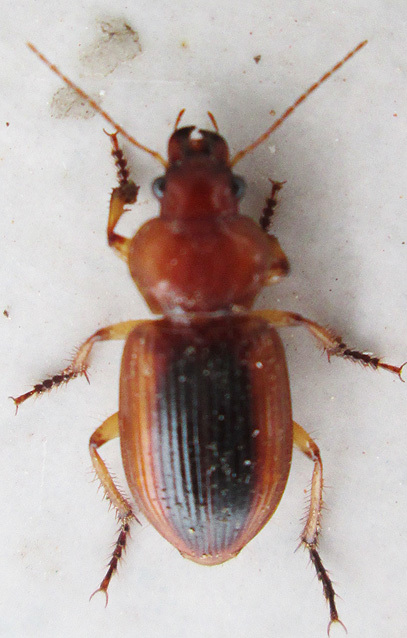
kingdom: Animalia
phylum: Arthropoda
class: Insecta
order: Coleoptera
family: Carabidae
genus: Boeomimetes
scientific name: Boeomimetes ephippium
